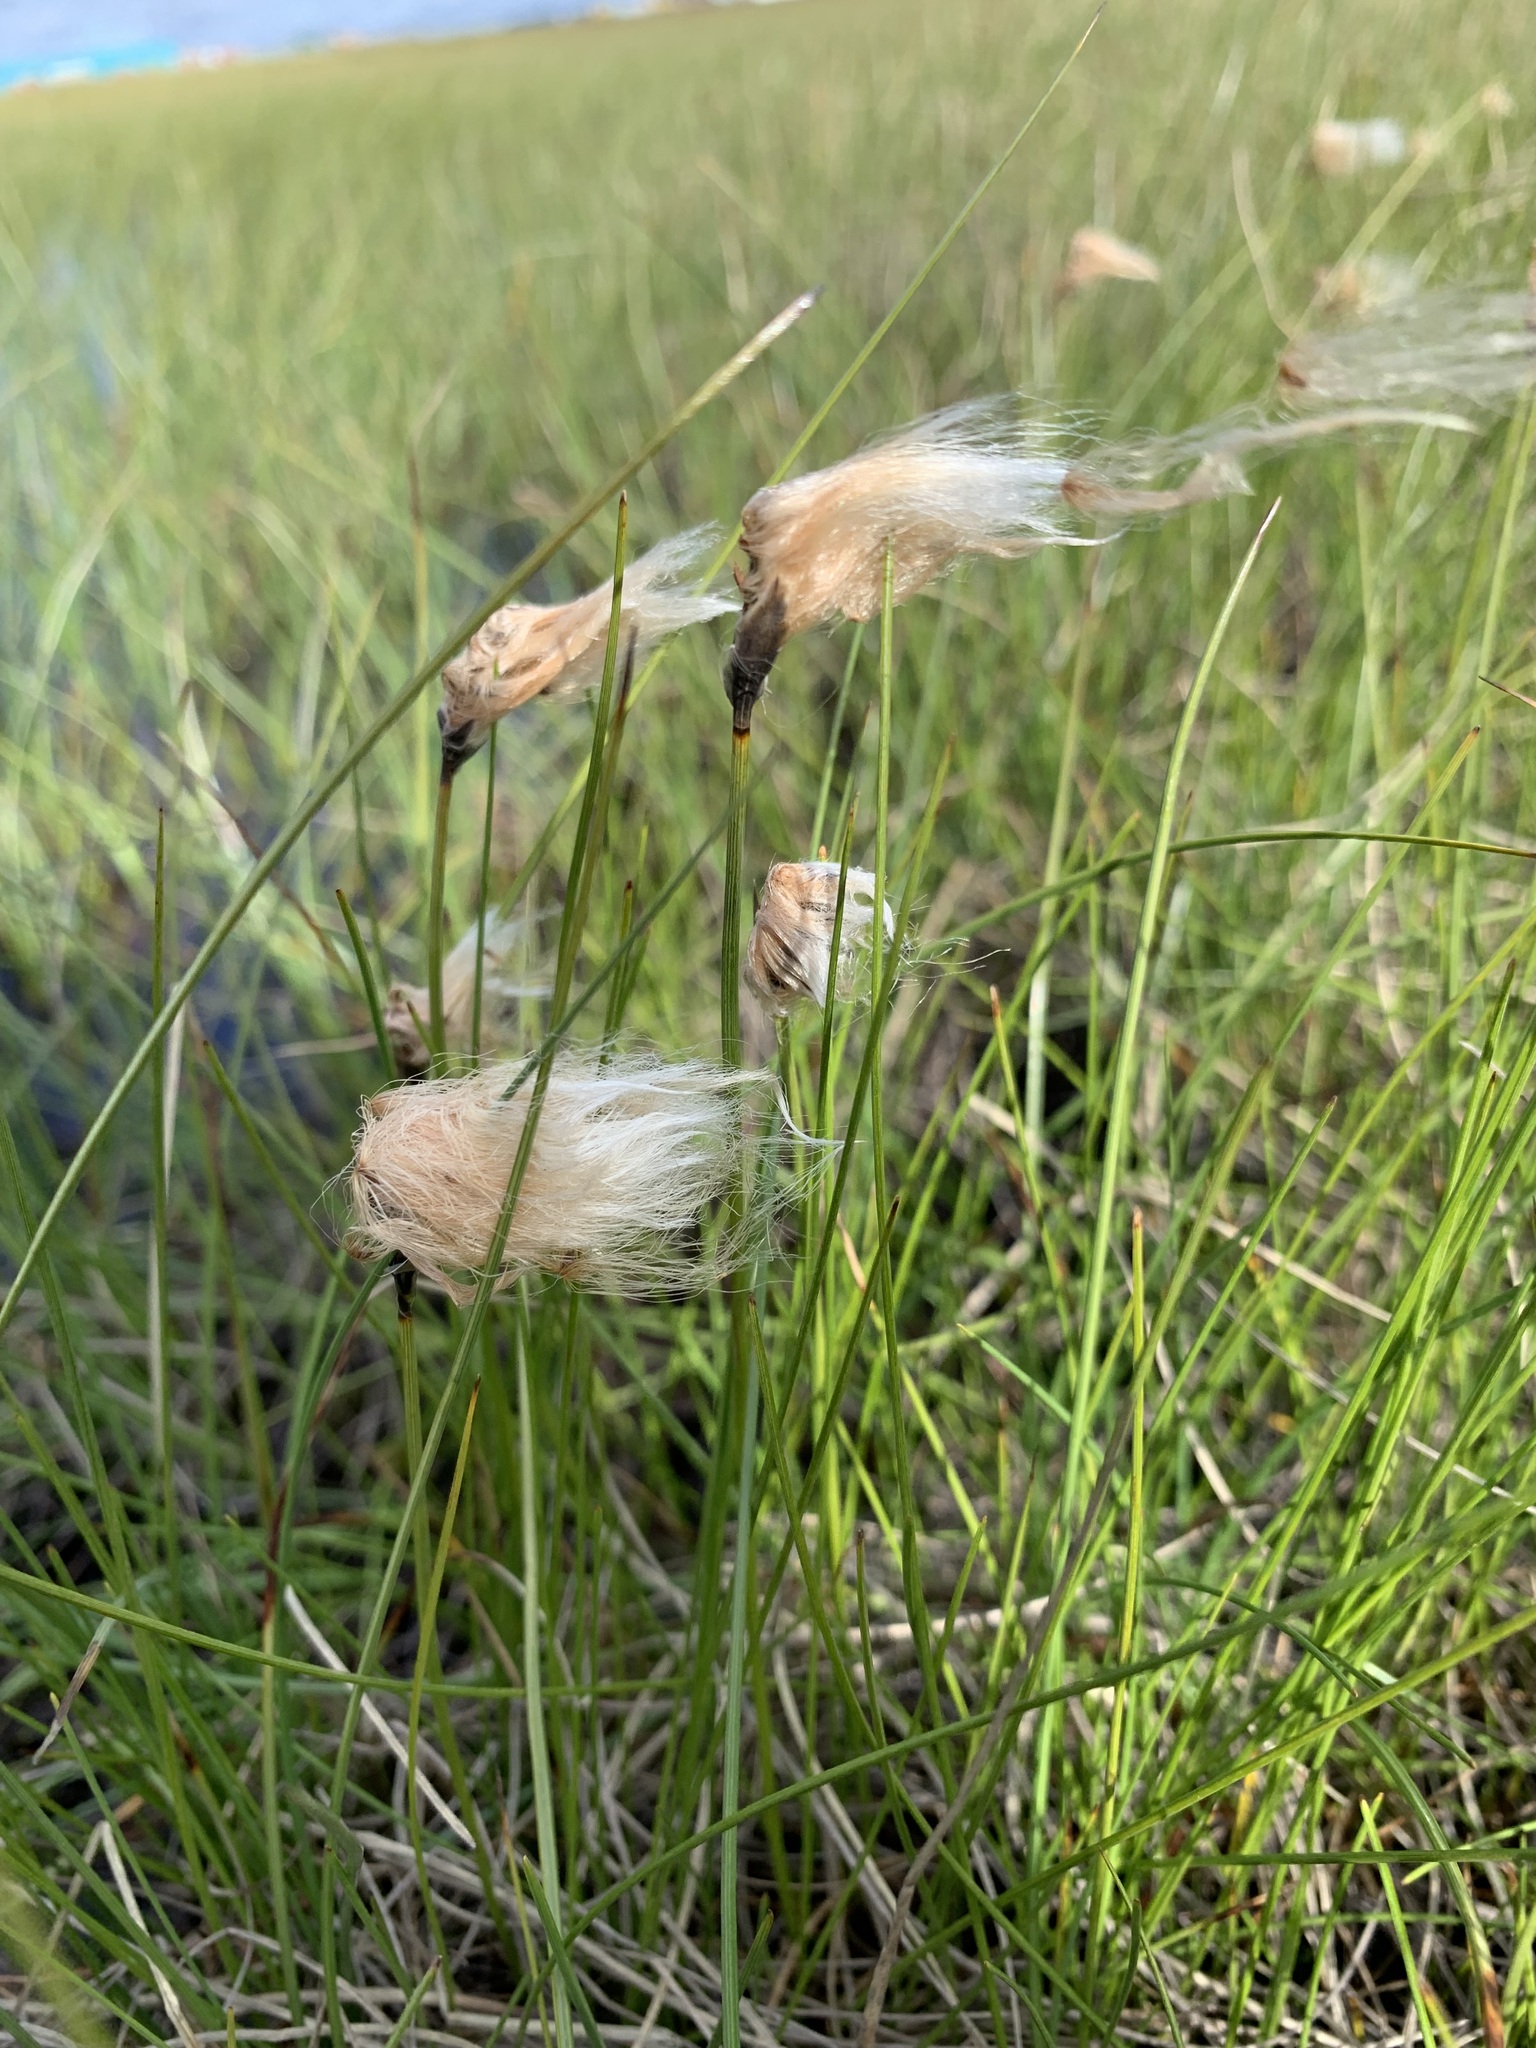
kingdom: Plantae
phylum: Tracheophyta
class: Liliopsida
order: Poales
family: Cyperaceae
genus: Eriophorum
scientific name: Eriophorum chamissonis
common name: Chamisso's cottongrass
